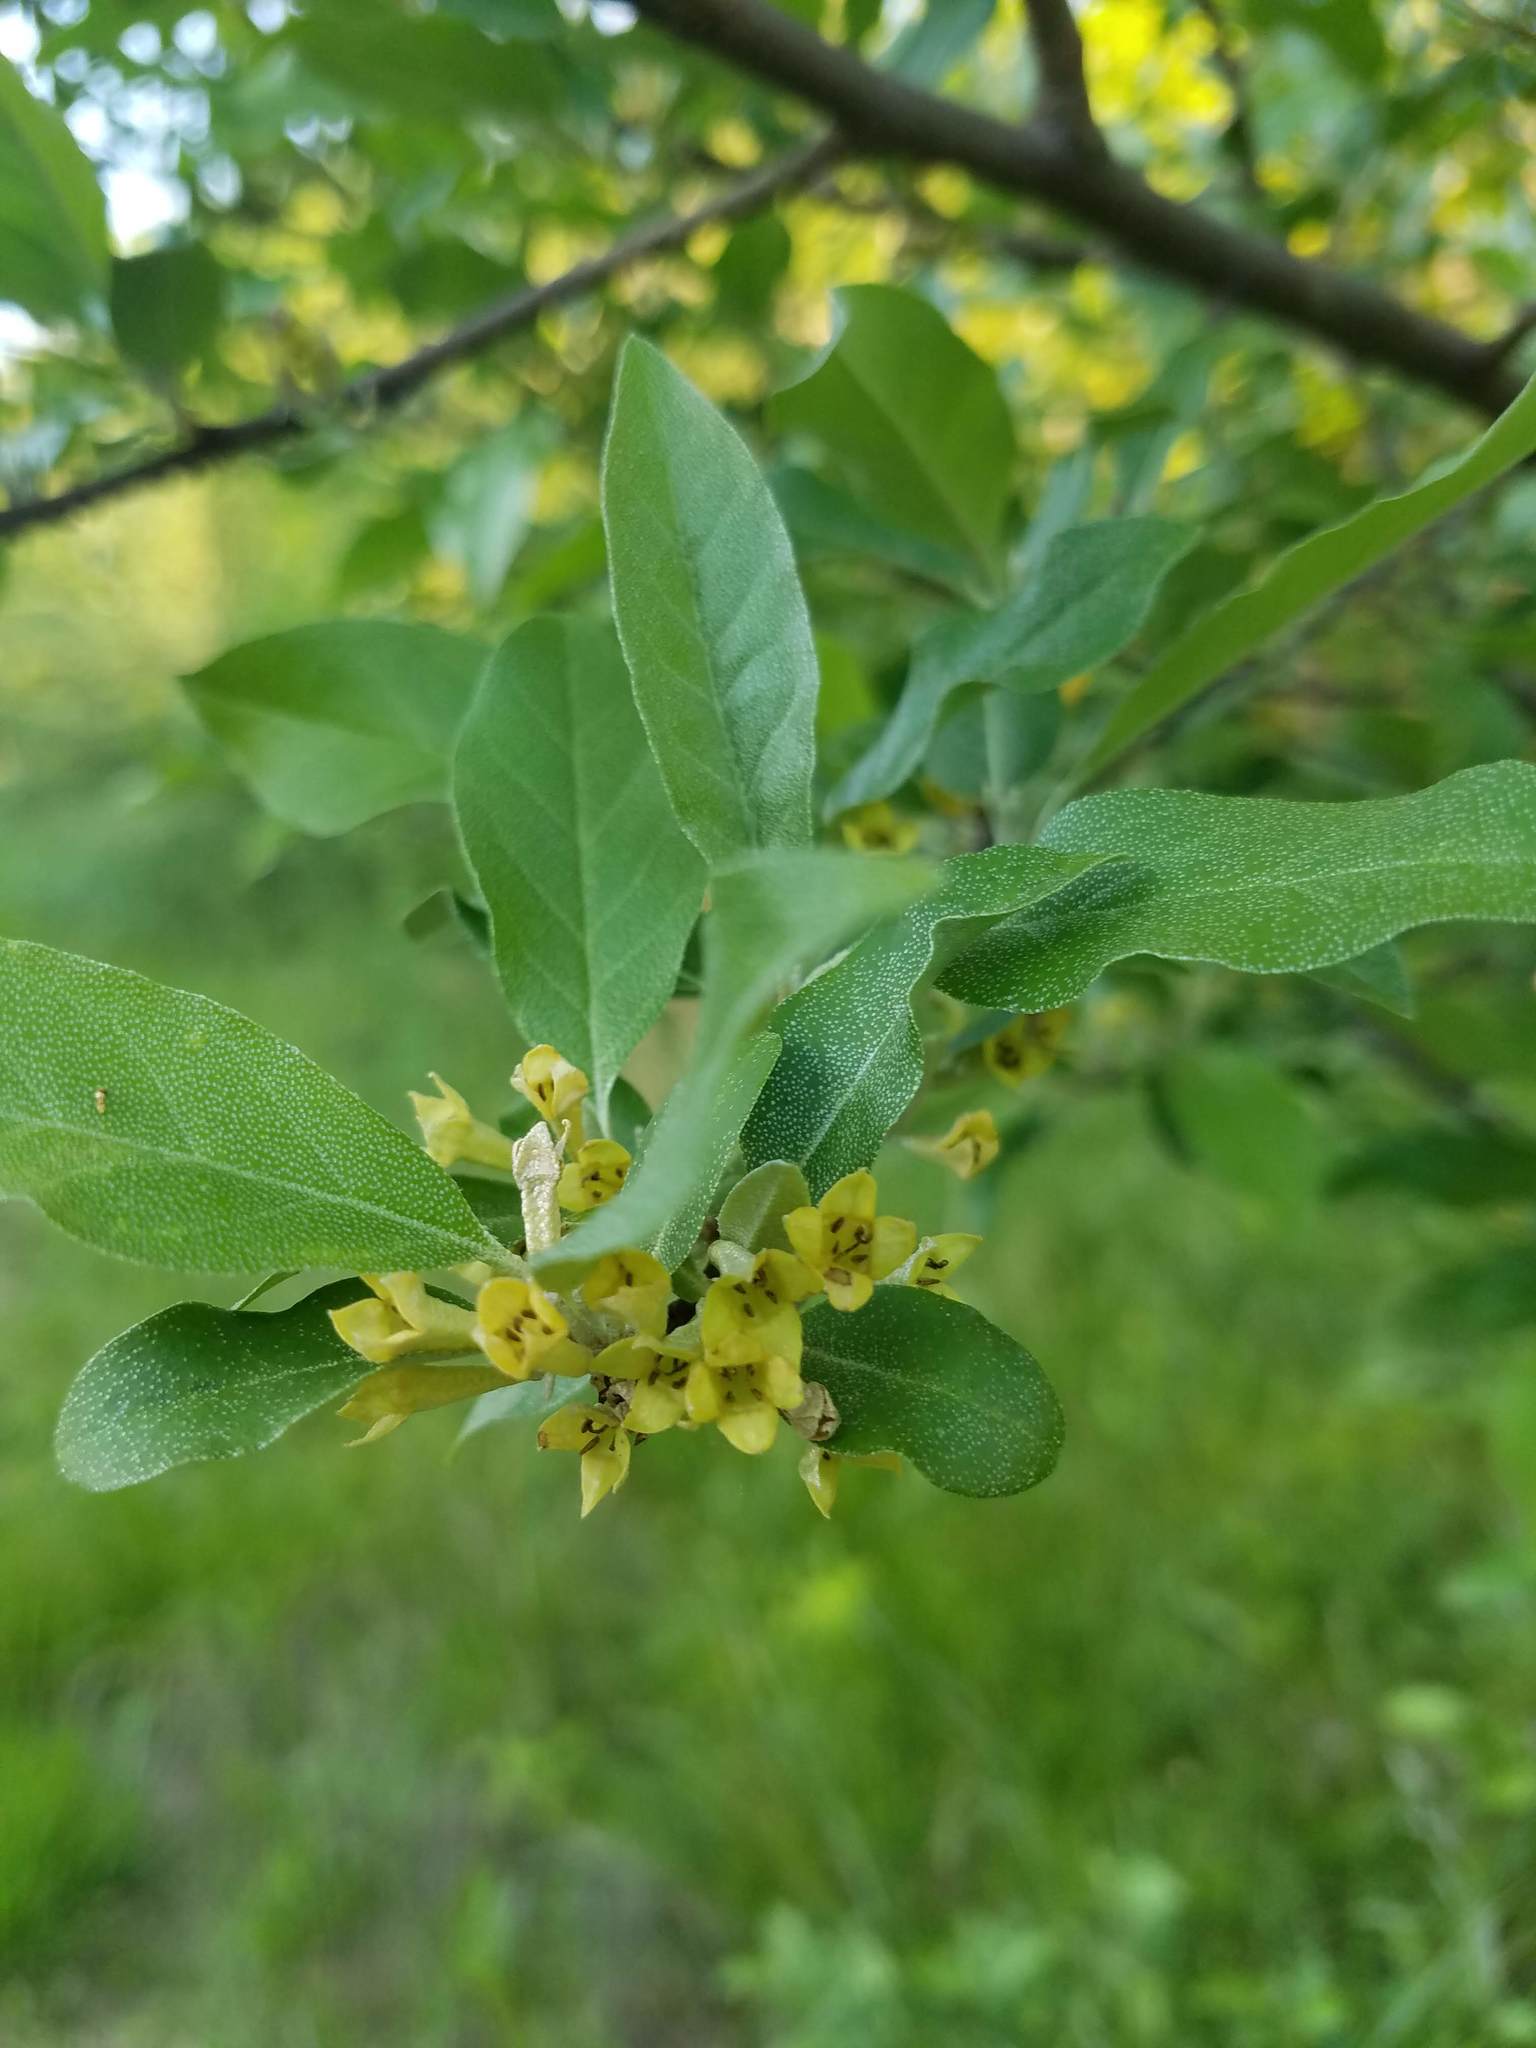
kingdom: Plantae
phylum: Tracheophyta
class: Magnoliopsida
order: Rosales
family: Elaeagnaceae
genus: Elaeagnus
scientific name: Elaeagnus umbellata
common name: Autumn olive
